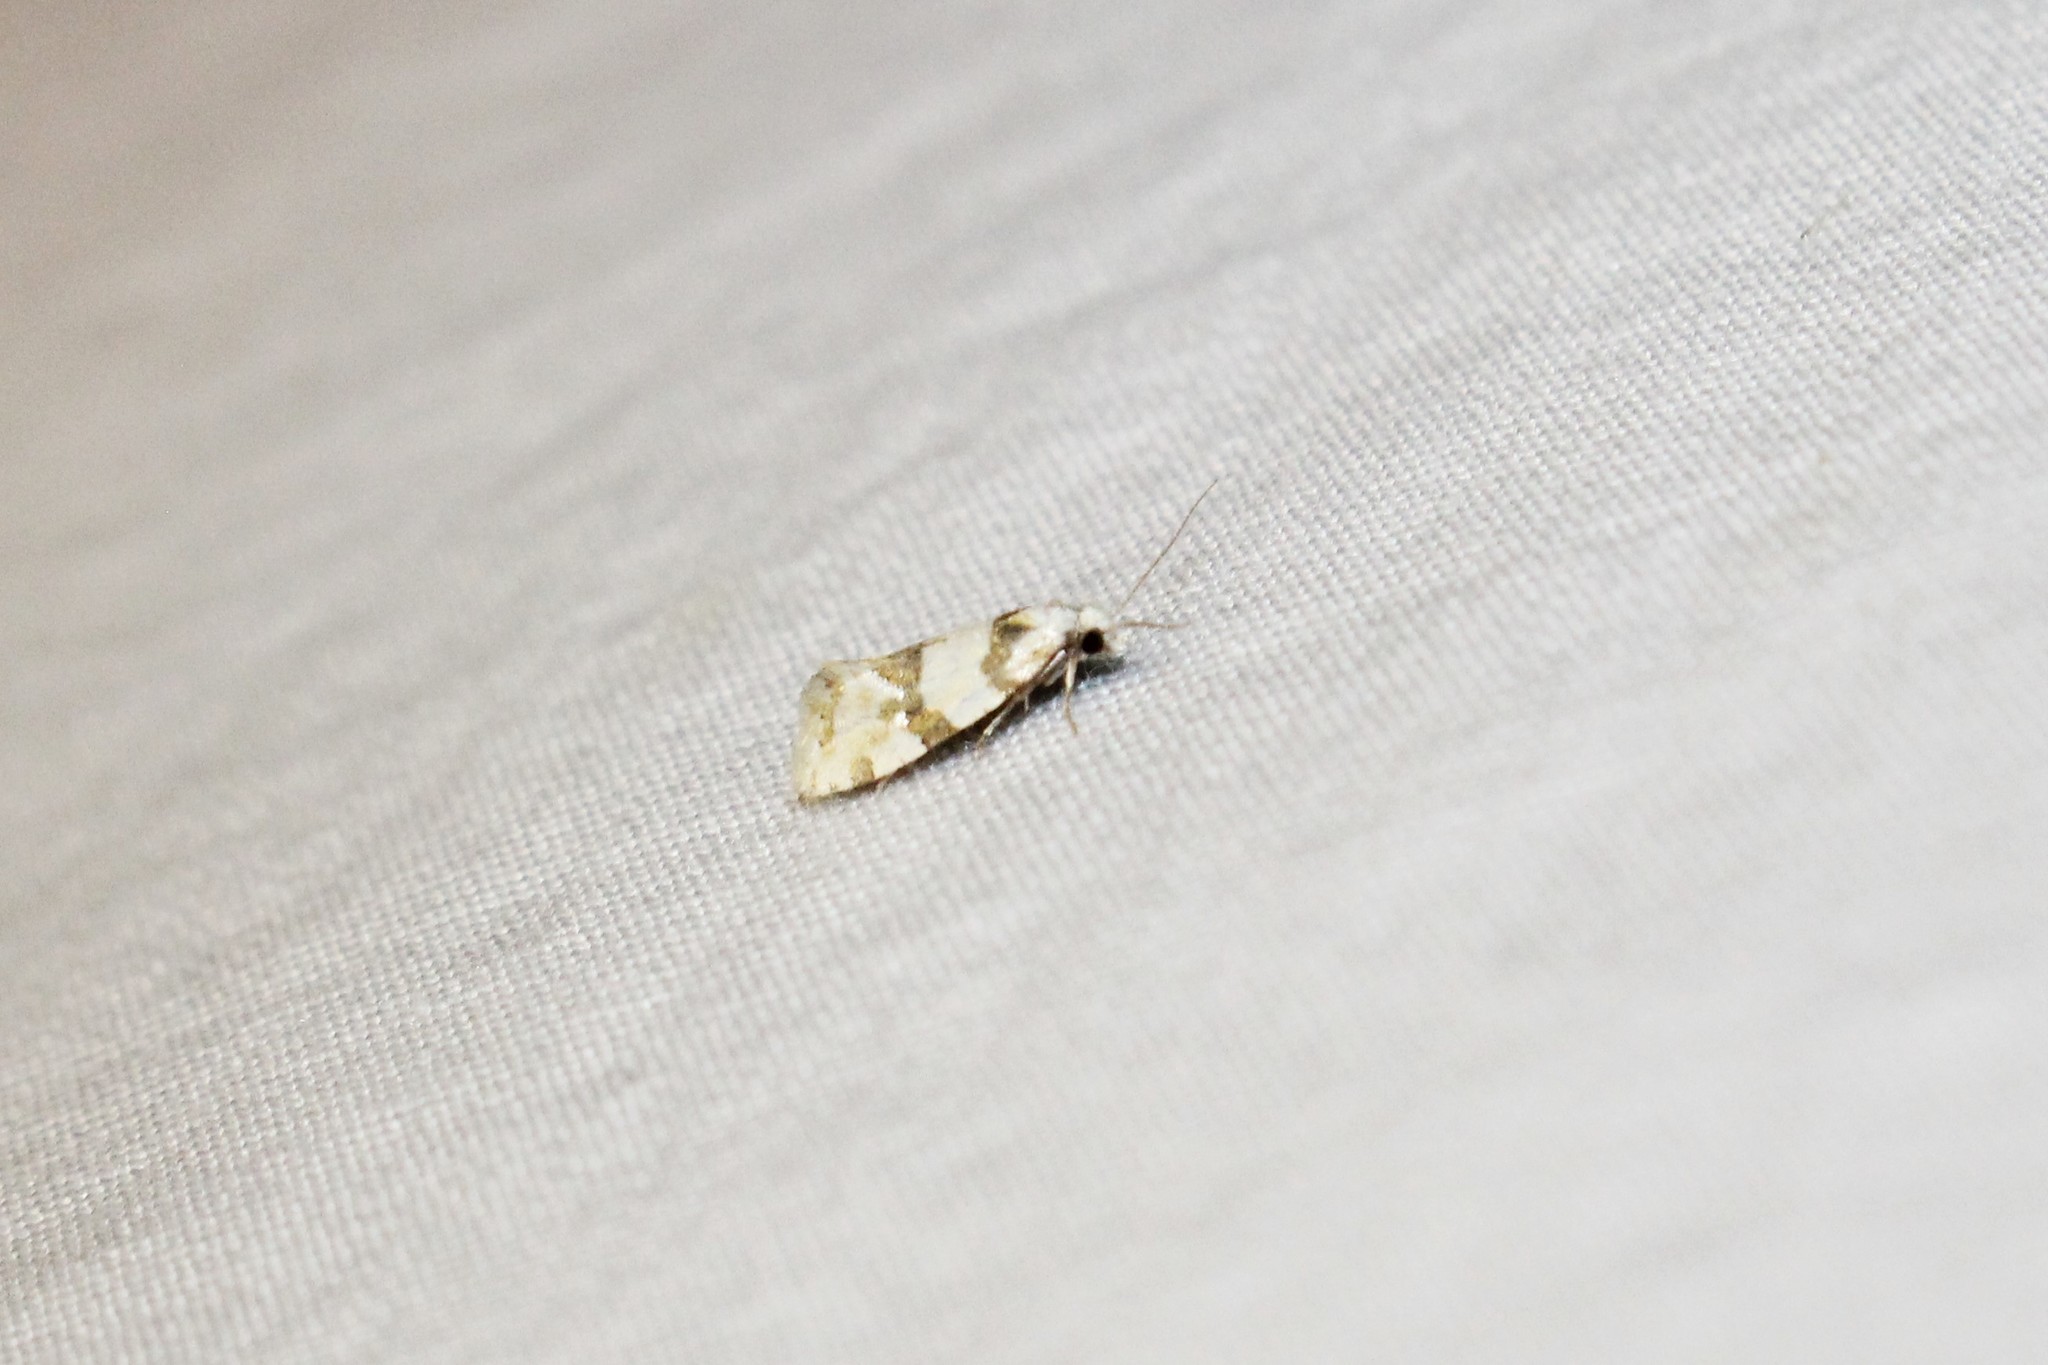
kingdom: Animalia
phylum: Arthropoda
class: Insecta
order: Lepidoptera
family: Tortricidae
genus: Aethes
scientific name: Aethes argentilimitana
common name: Silver-bordered aethes
